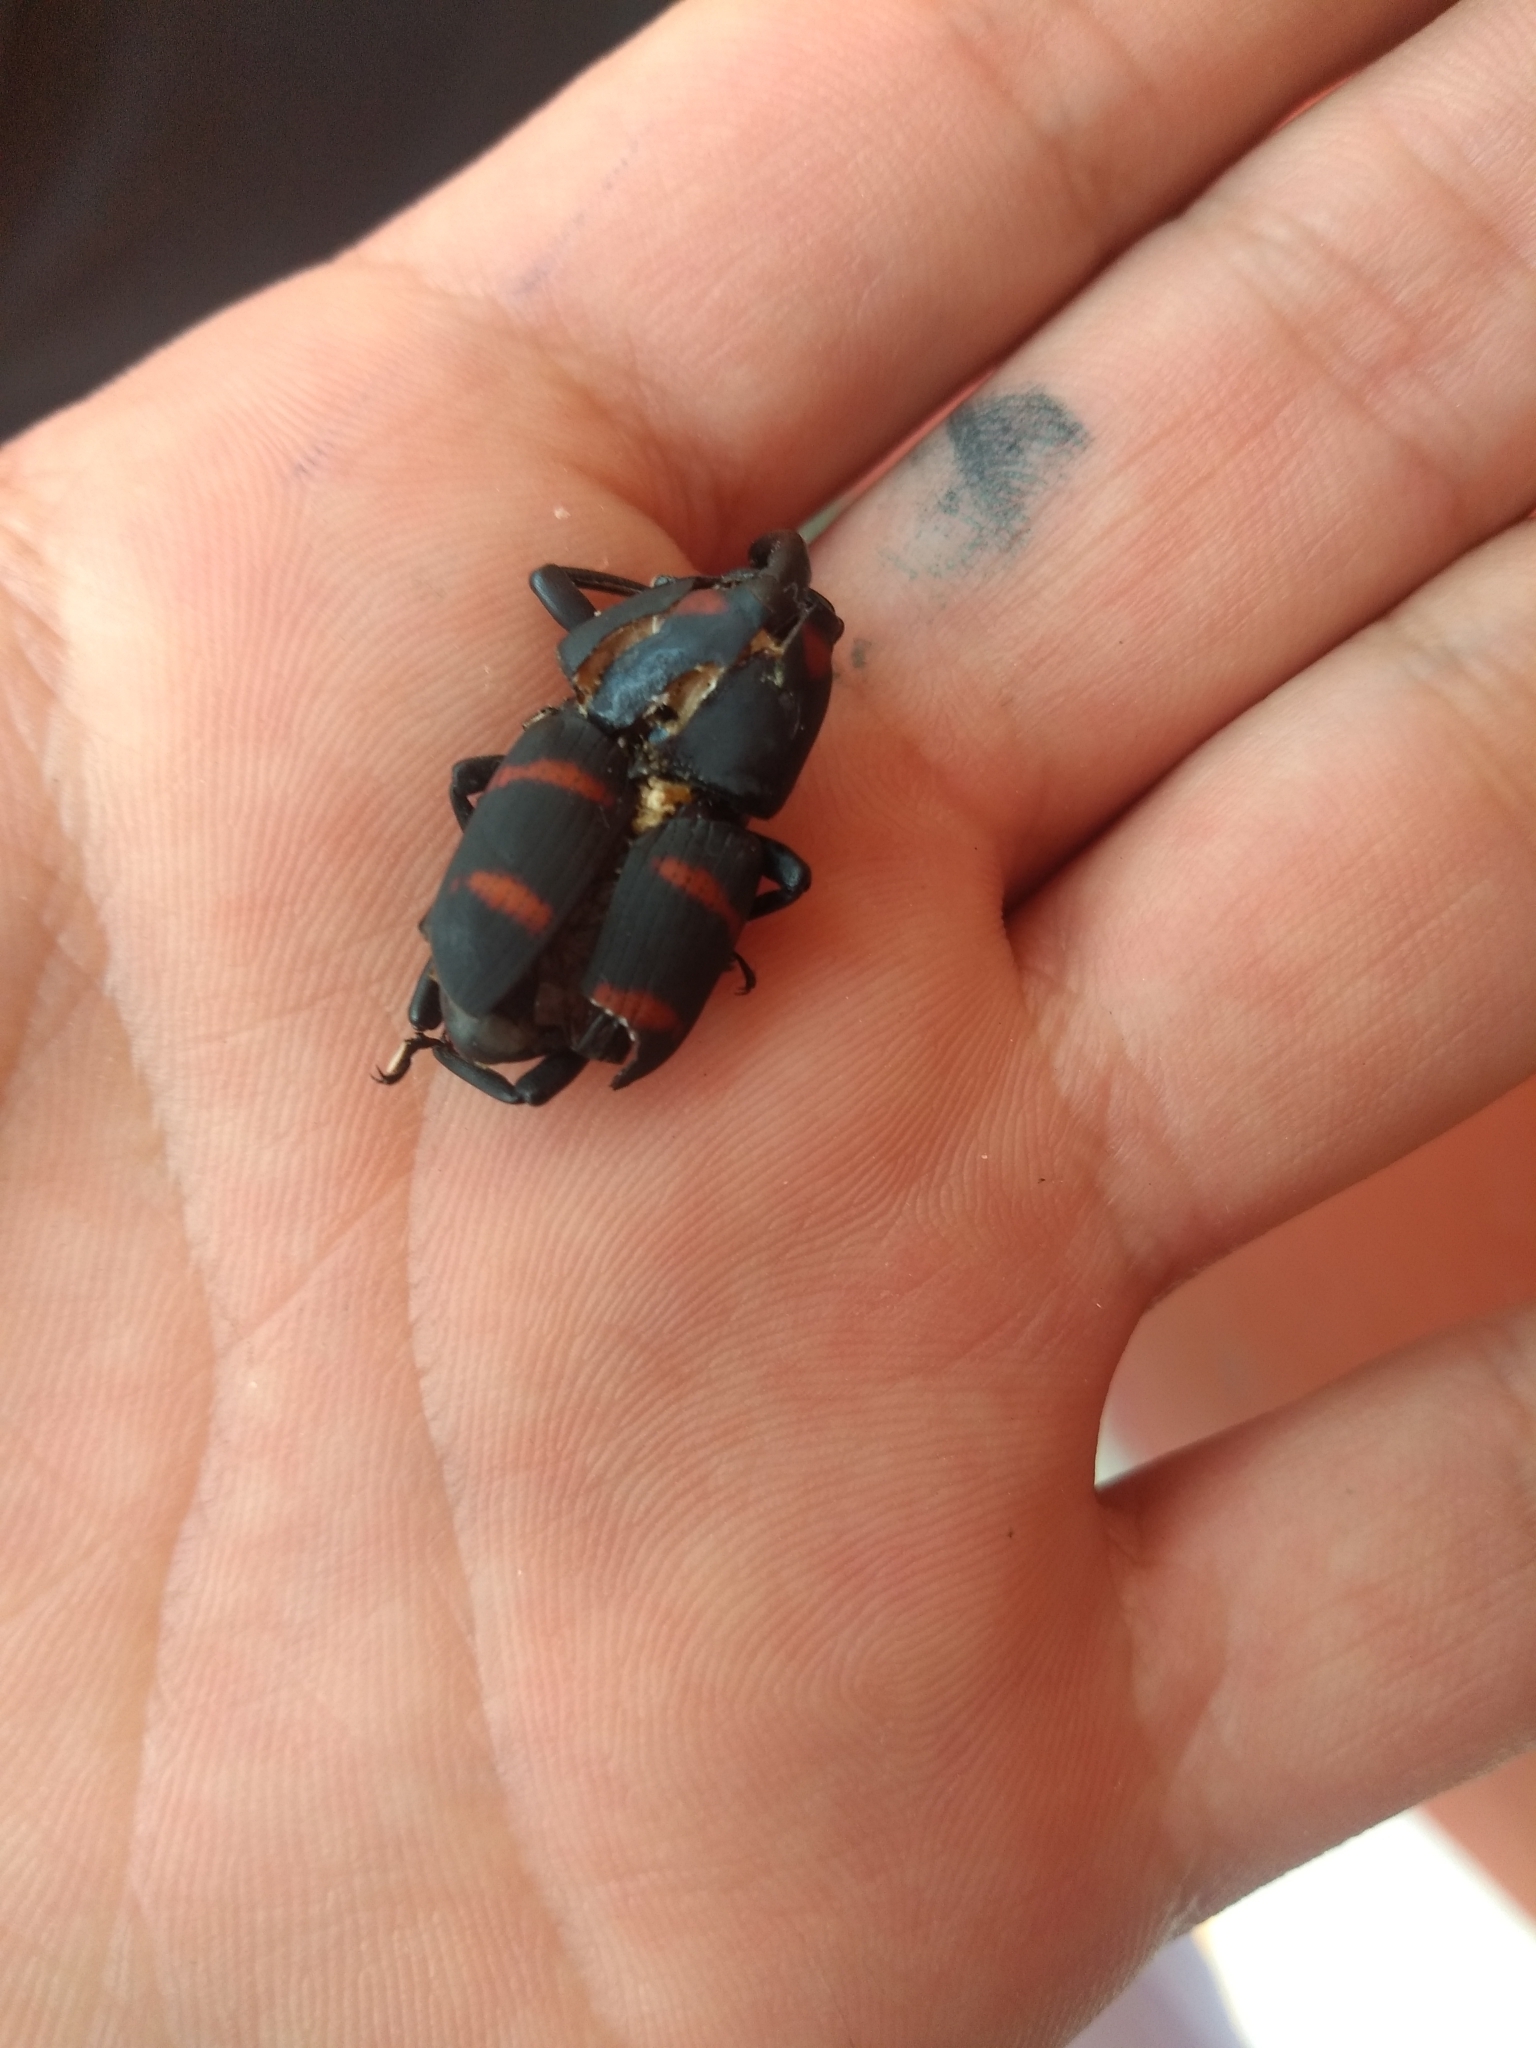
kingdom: Animalia
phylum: Arthropoda
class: Insecta
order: Coleoptera
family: Dryophthoridae
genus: Cactophagus
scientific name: Cactophagus spinolae
